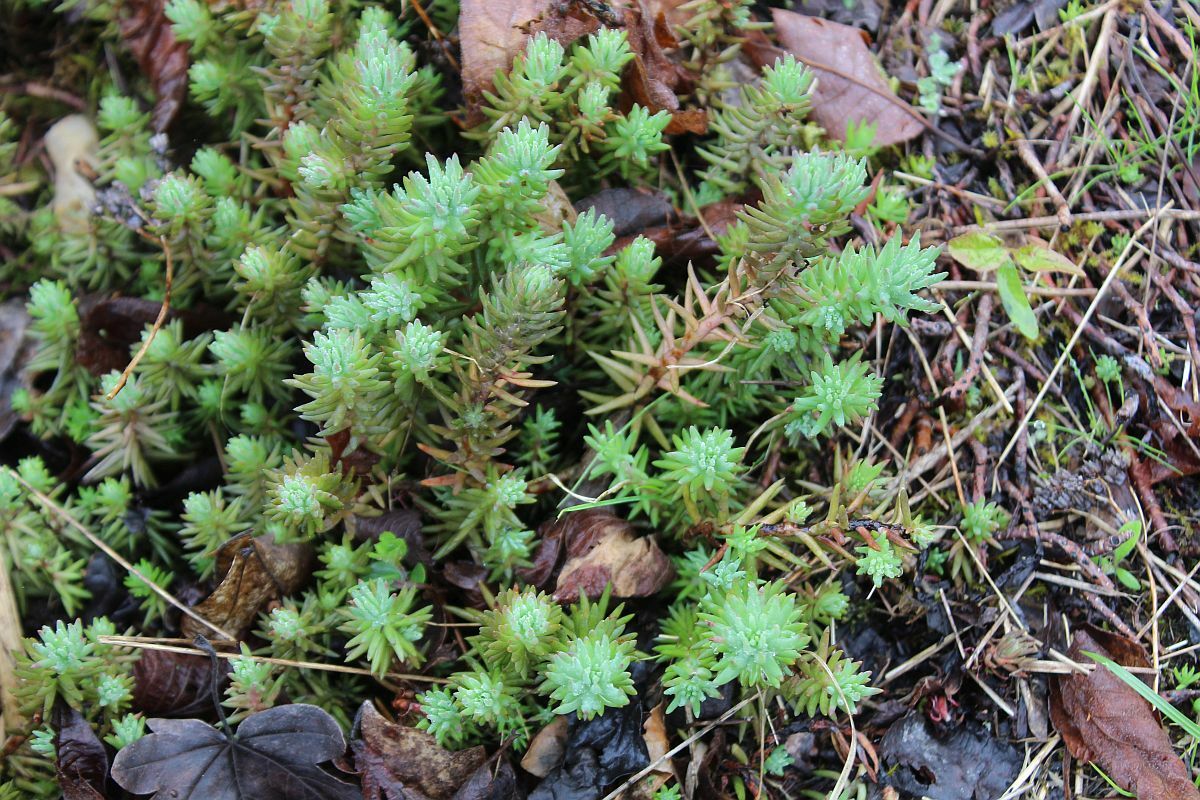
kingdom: Plantae
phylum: Tracheophyta
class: Magnoliopsida
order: Saxifragales
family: Crassulaceae
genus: Petrosedum
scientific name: Petrosedum rupestre
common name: Jenny's stonecrop
